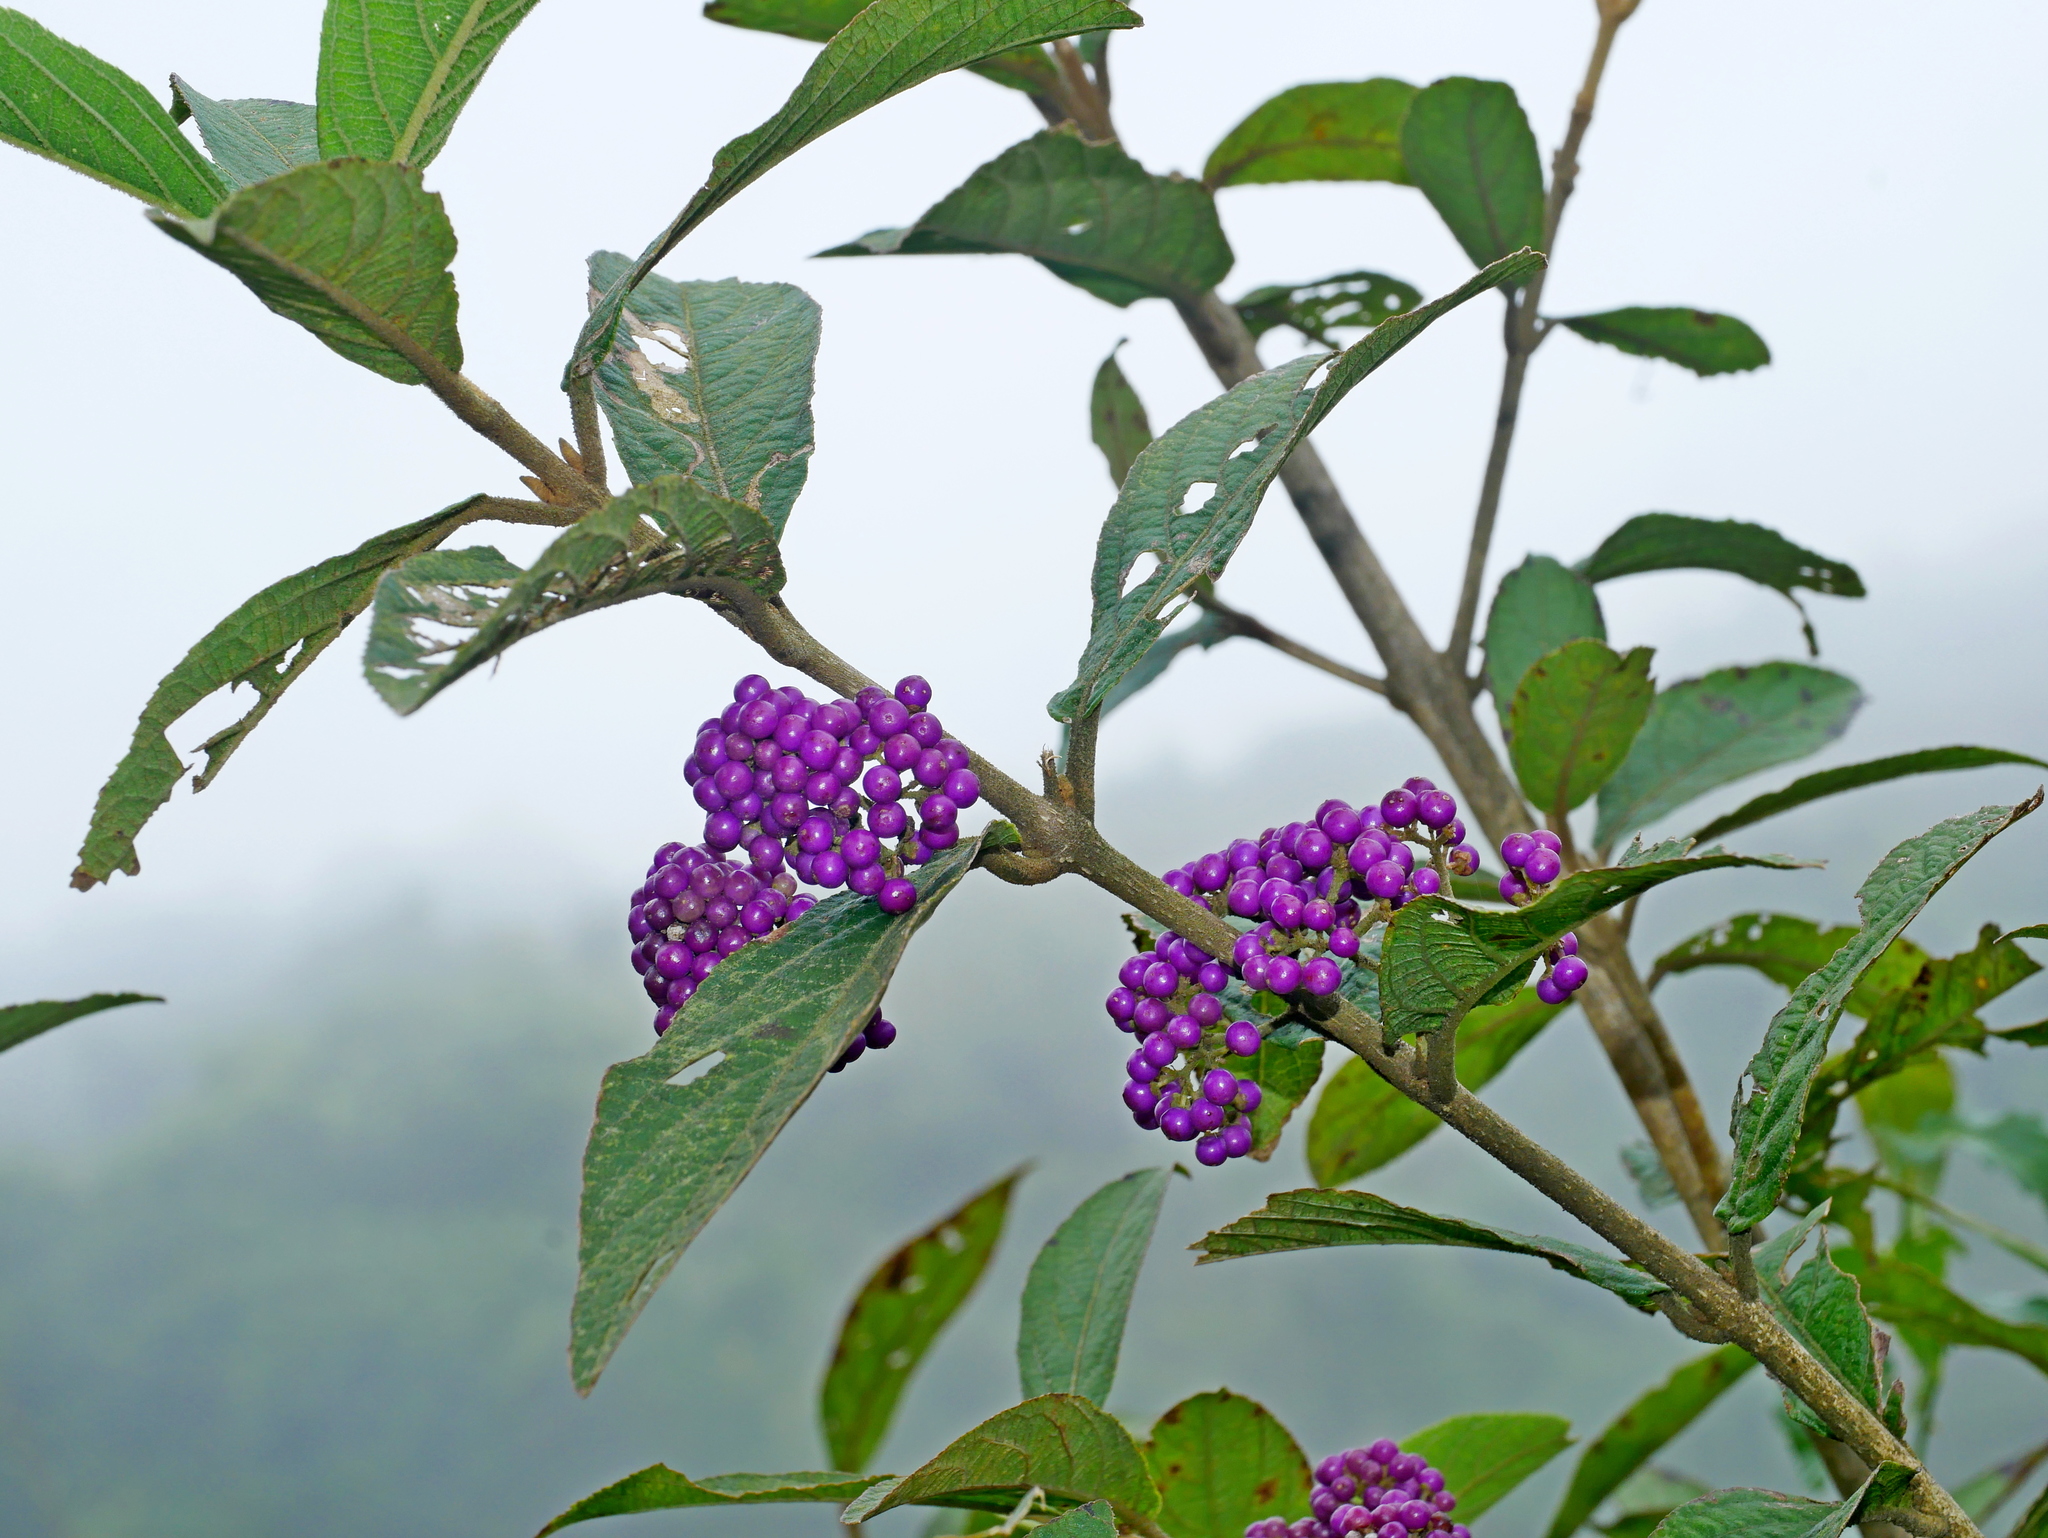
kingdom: Plantae
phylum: Tracheophyta
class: Magnoliopsida
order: Lamiales
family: Lamiaceae
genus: Callicarpa
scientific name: Callicarpa tikusikensis
